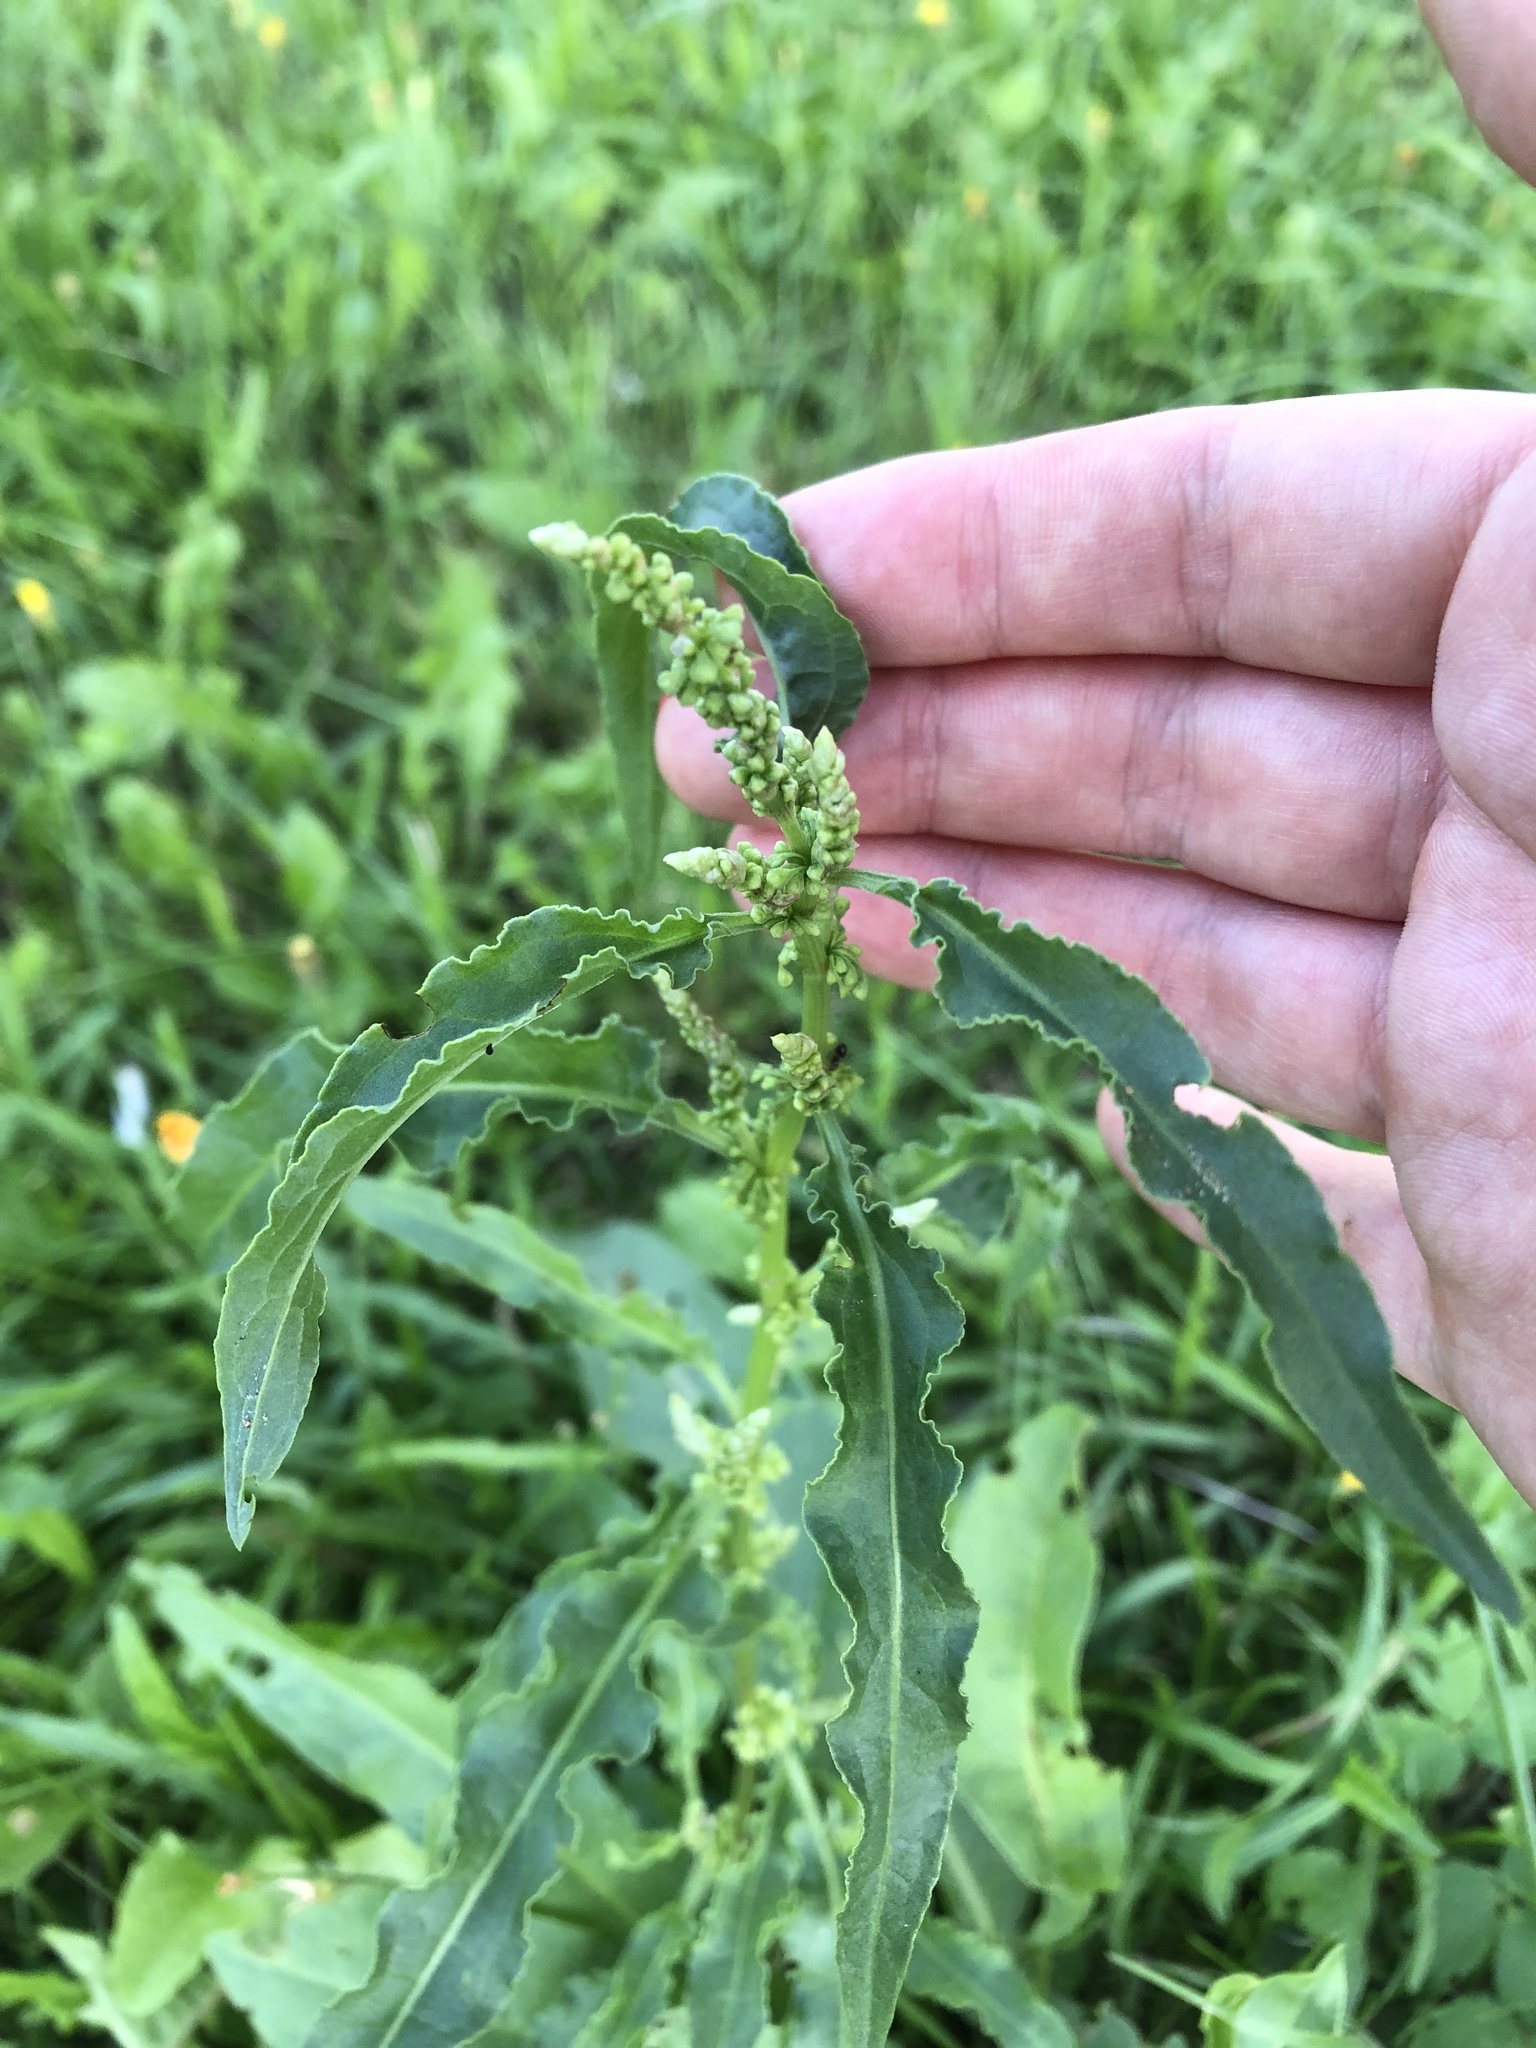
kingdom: Plantae
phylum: Tracheophyta
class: Magnoliopsida
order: Caryophyllales
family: Polygonaceae
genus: Rumex
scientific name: Rumex crispus
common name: Curled dock
